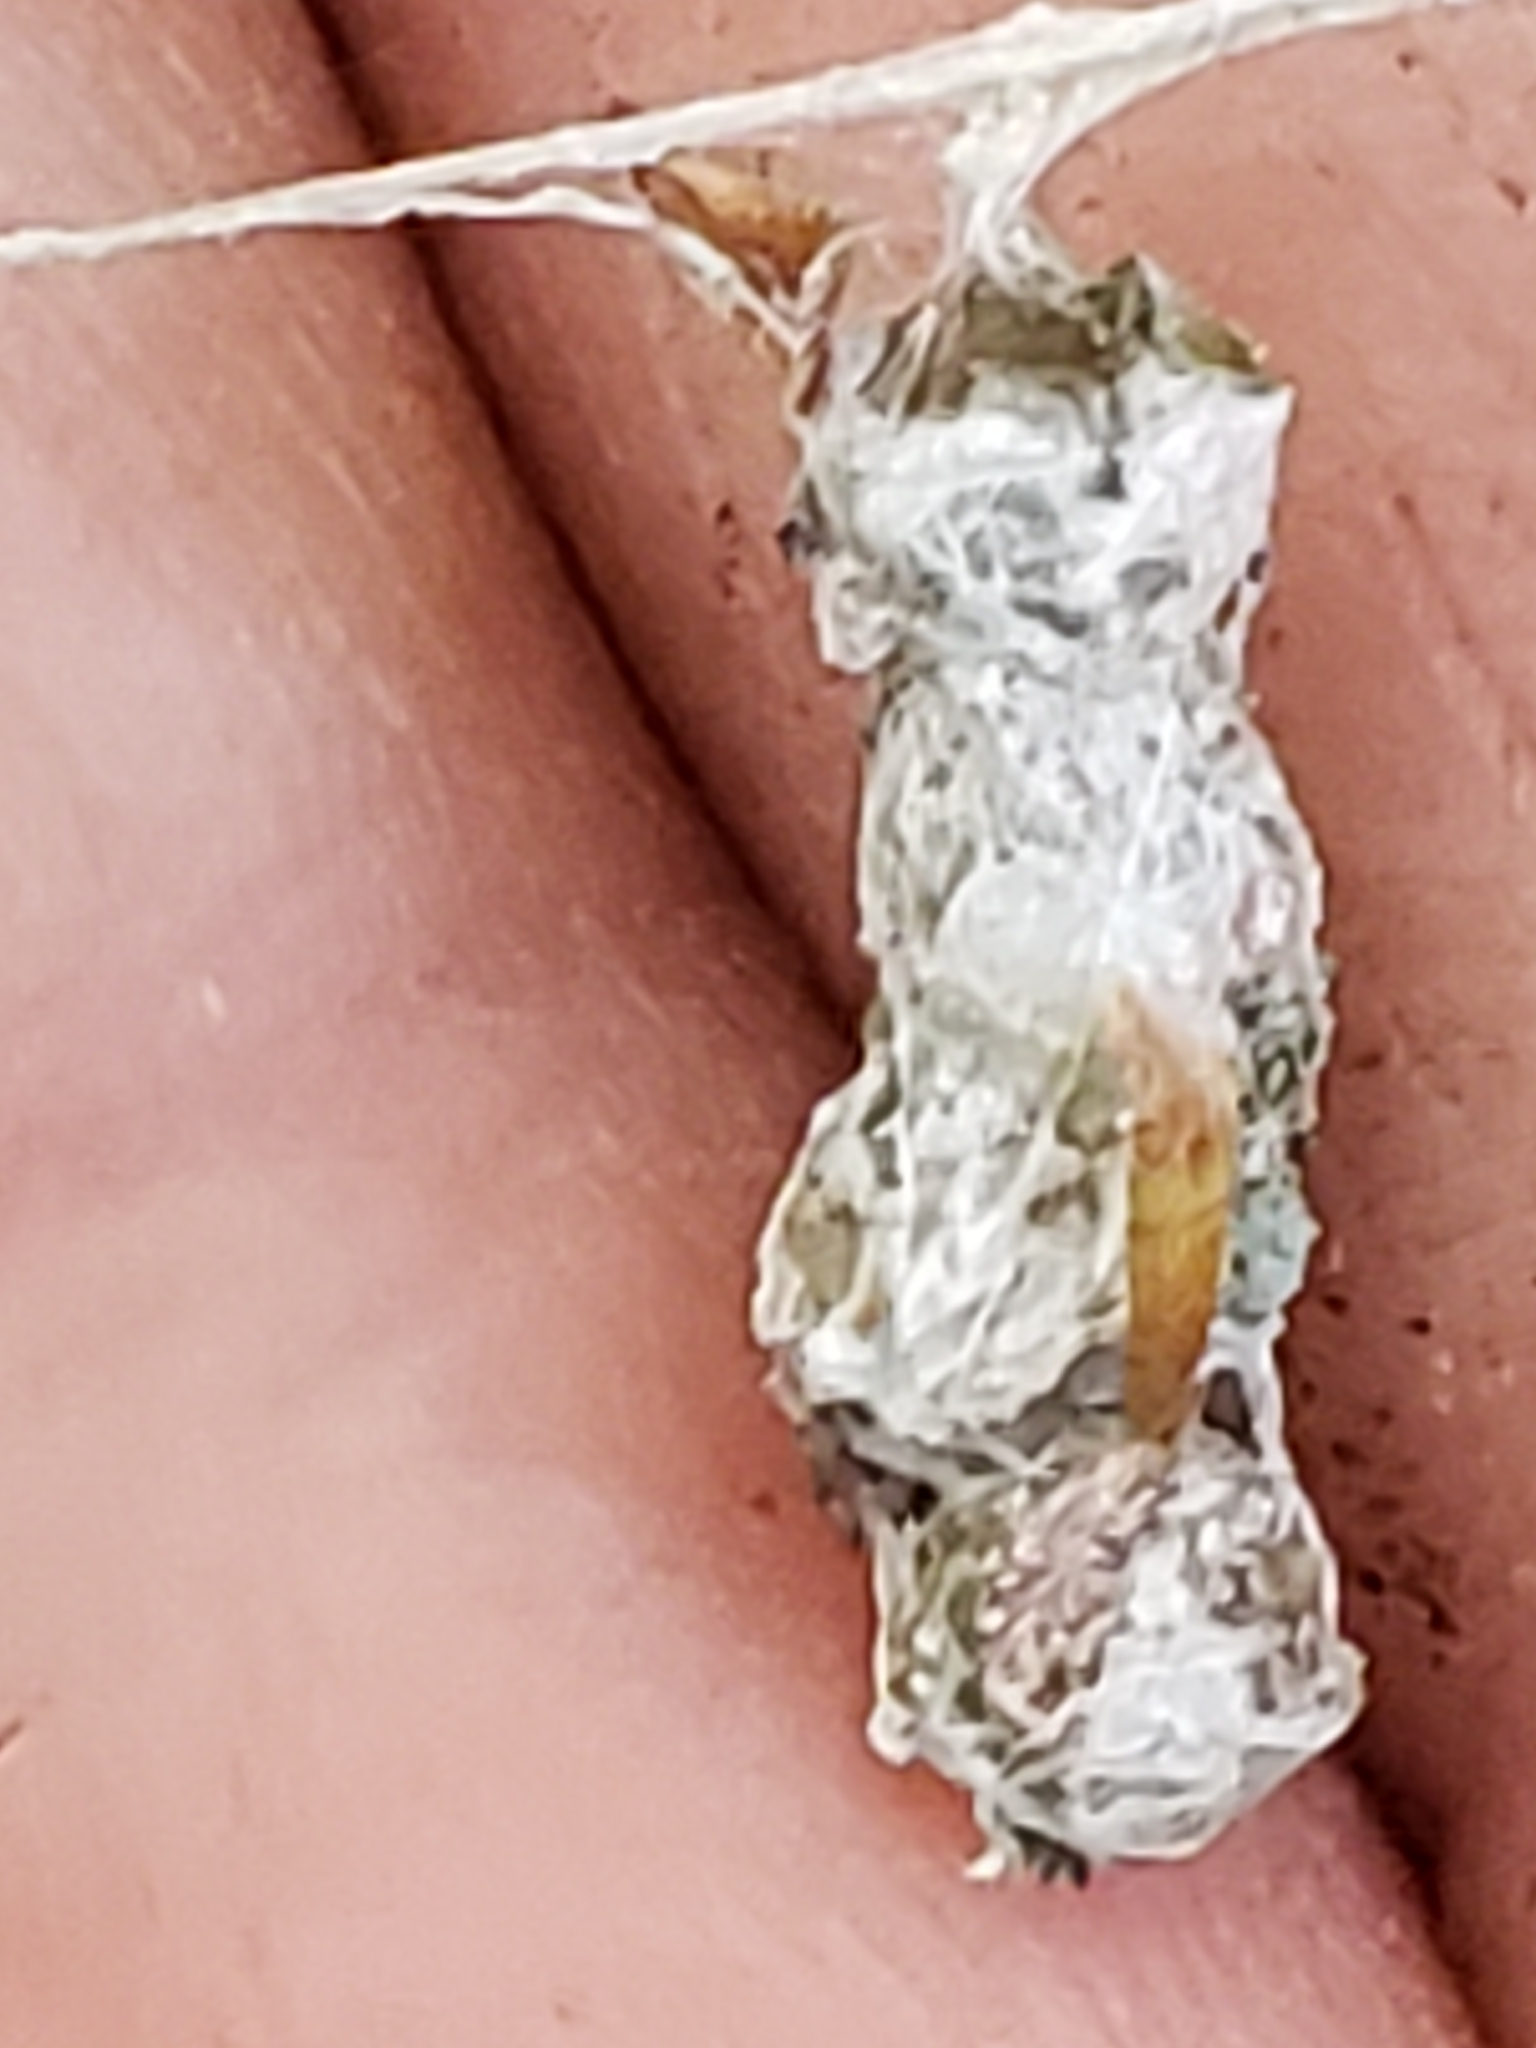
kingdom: Animalia
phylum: Arthropoda
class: Arachnida
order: Araneae
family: Araneidae
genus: Mecynogea
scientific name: Mecynogea lemniscata
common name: Orb weavers
